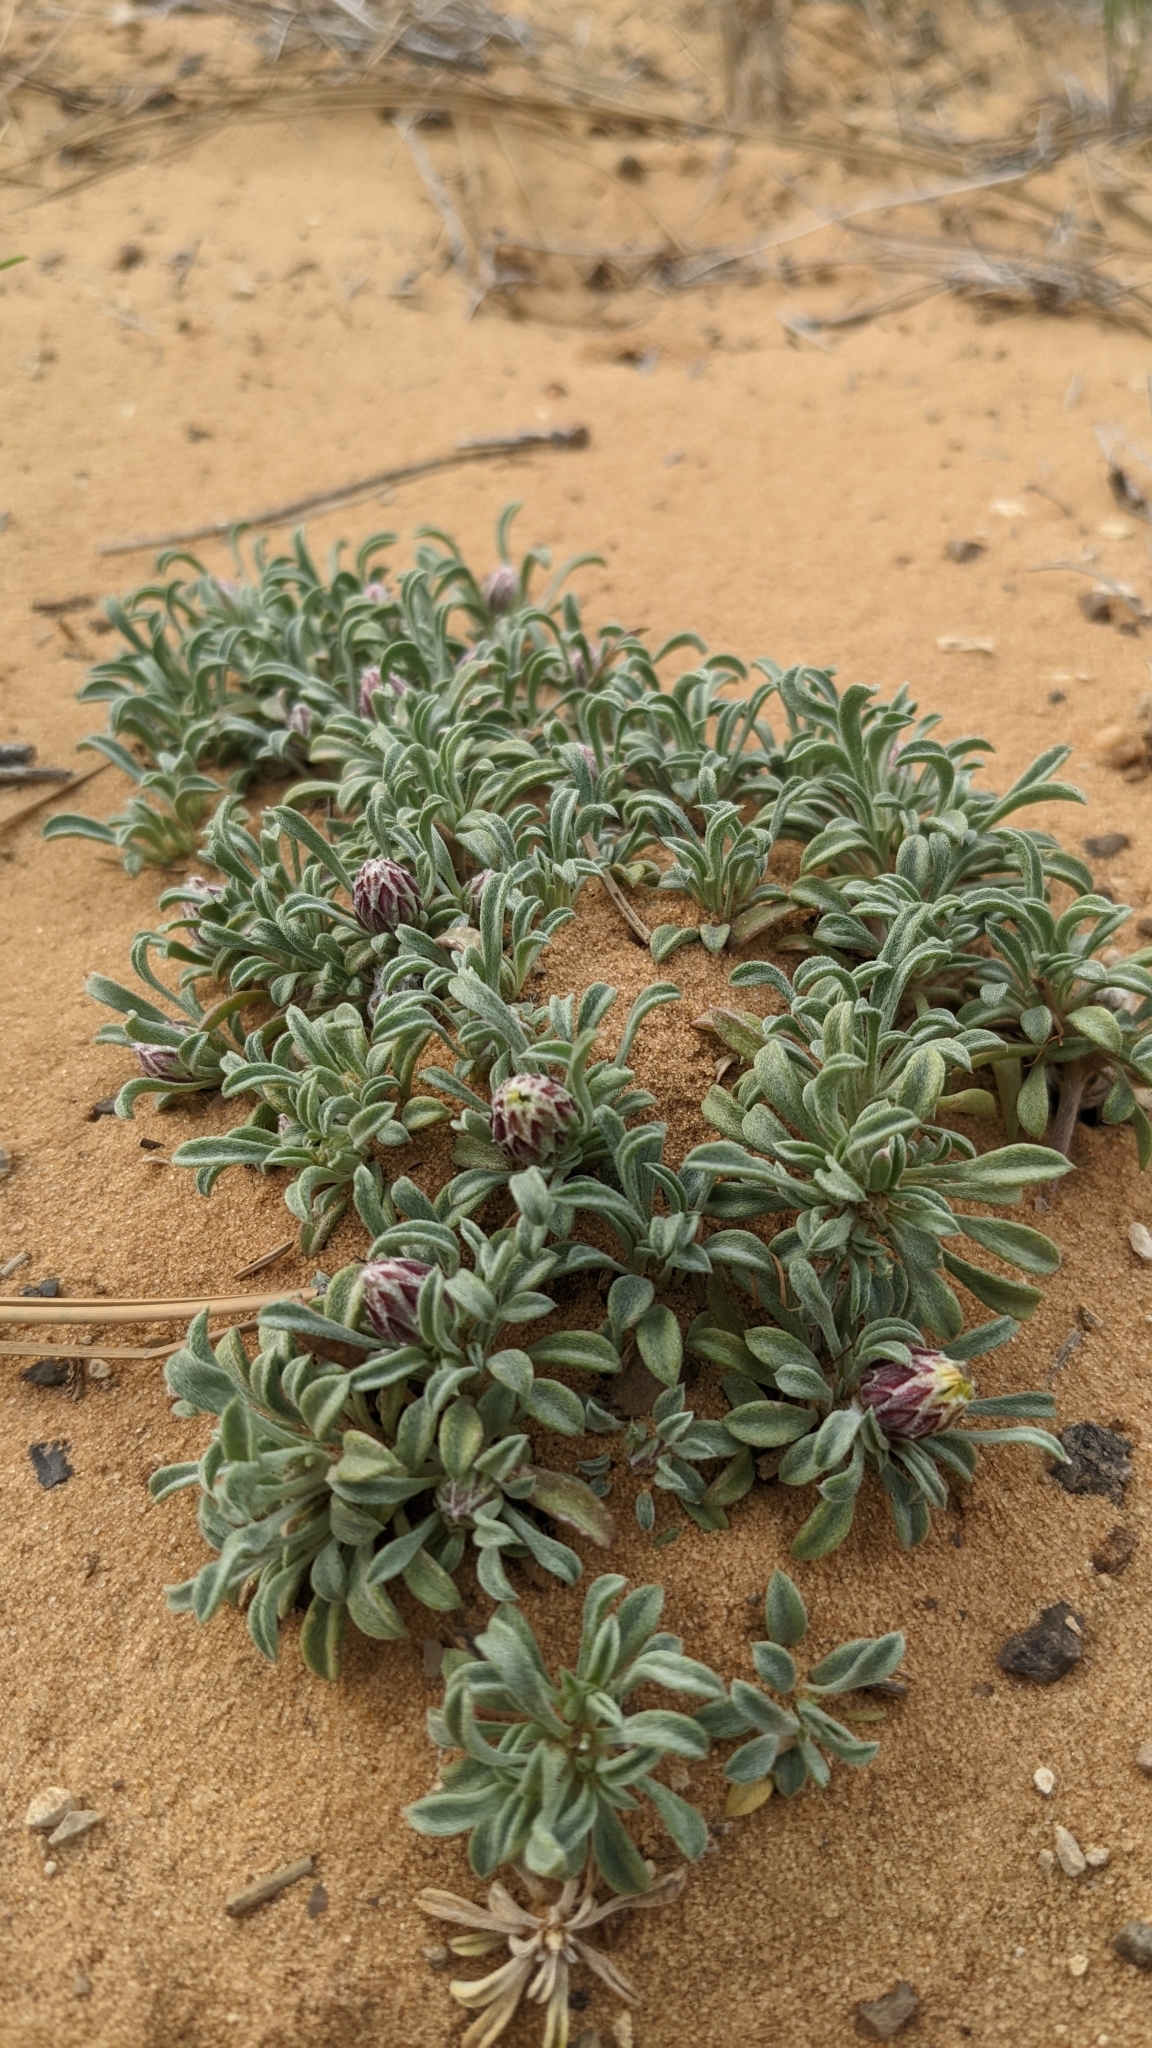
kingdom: Plantae
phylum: Tracheophyta
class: Magnoliopsida
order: Asterales
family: Asteraceae
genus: Townsendia
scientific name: Townsendia incana
